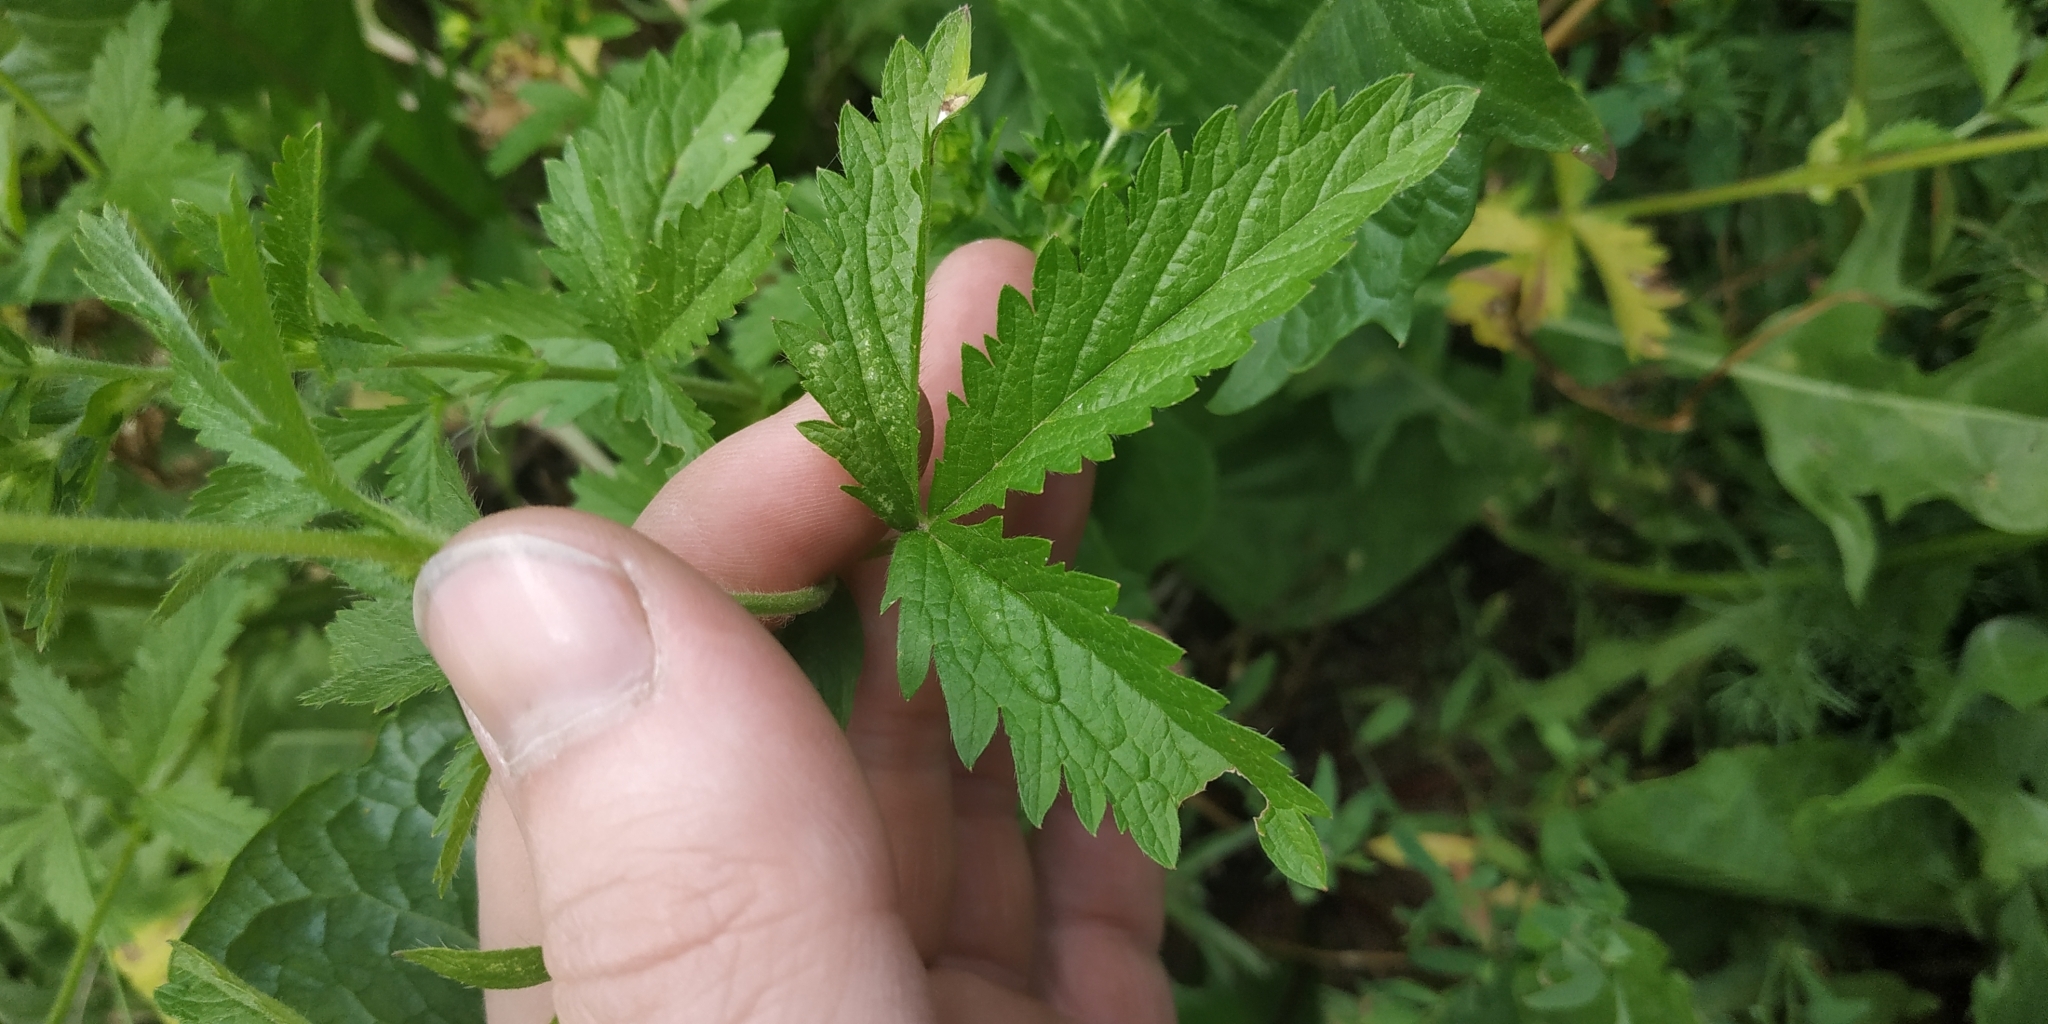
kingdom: Plantae
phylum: Tracheophyta
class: Magnoliopsida
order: Rosales
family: Rosaceae
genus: Potentilla
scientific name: Potentilla norvegica
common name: Ternate-leaved cinquefoil
